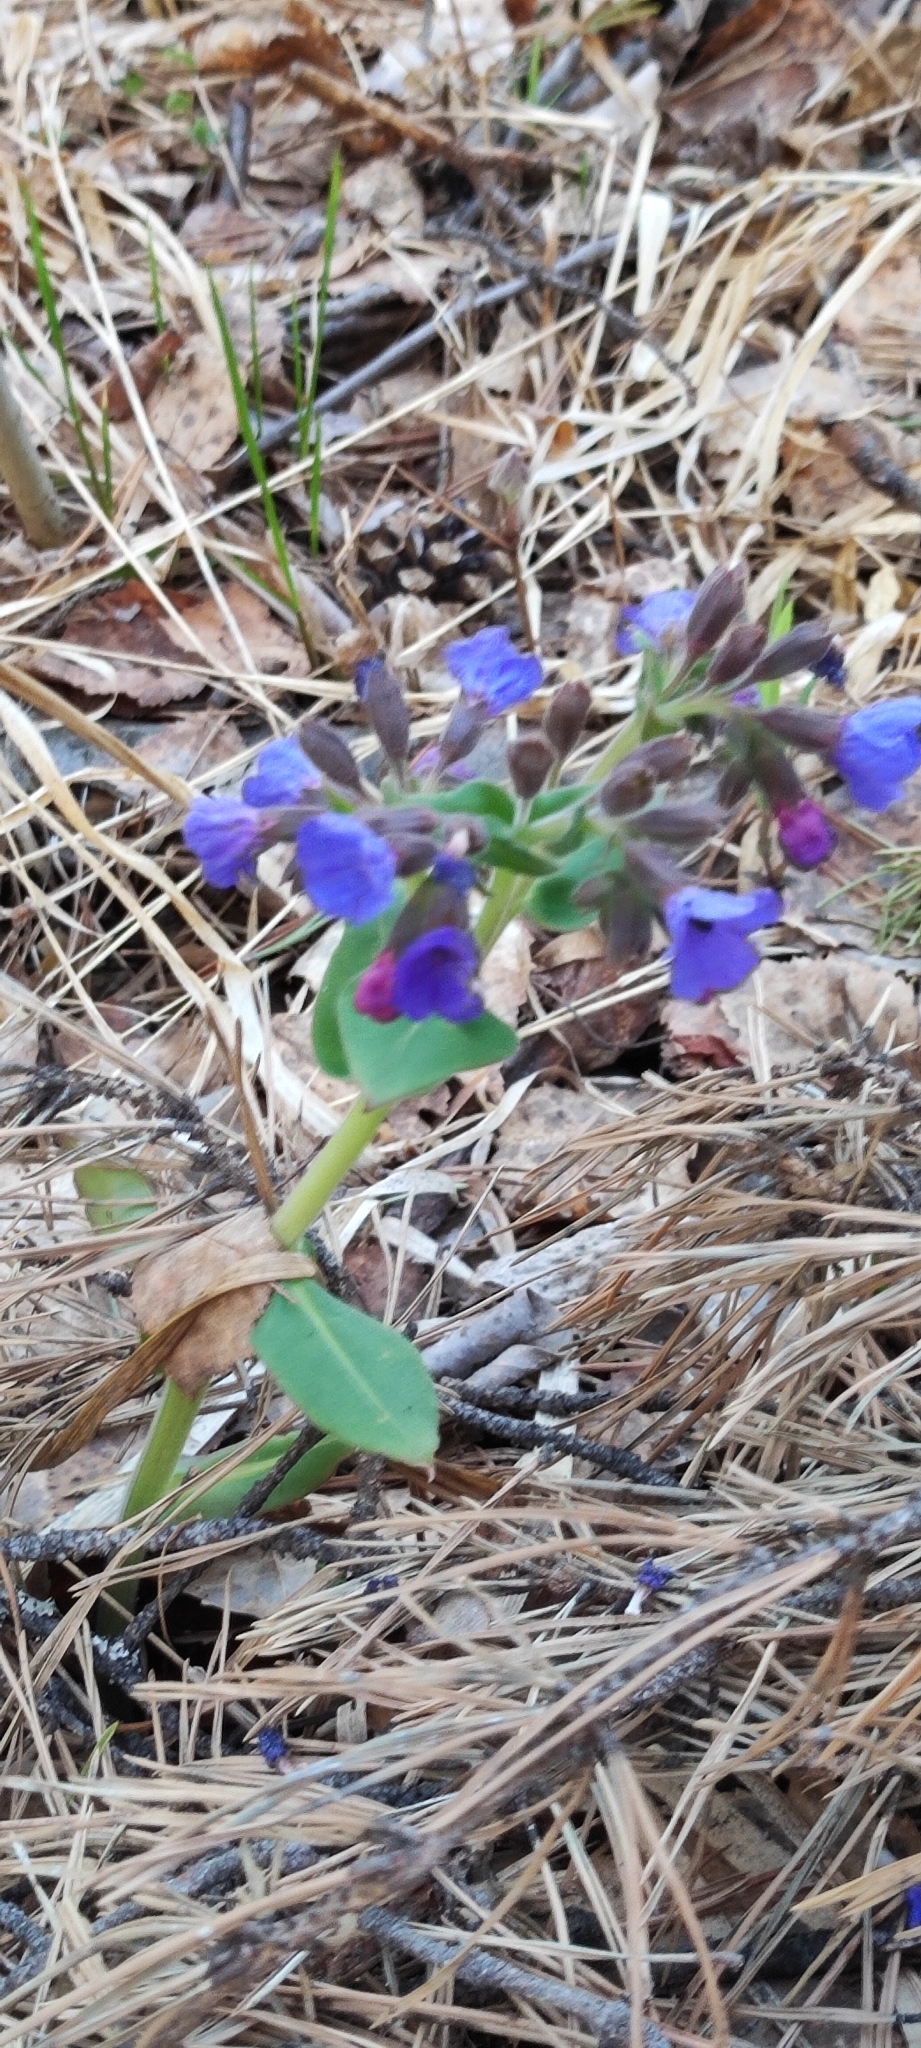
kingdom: Plantae
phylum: Tracheophyta
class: Magnoliopsida
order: Boraginales
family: Boraginaceae
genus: Pulmonaria
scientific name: Pulmonaria mollis
